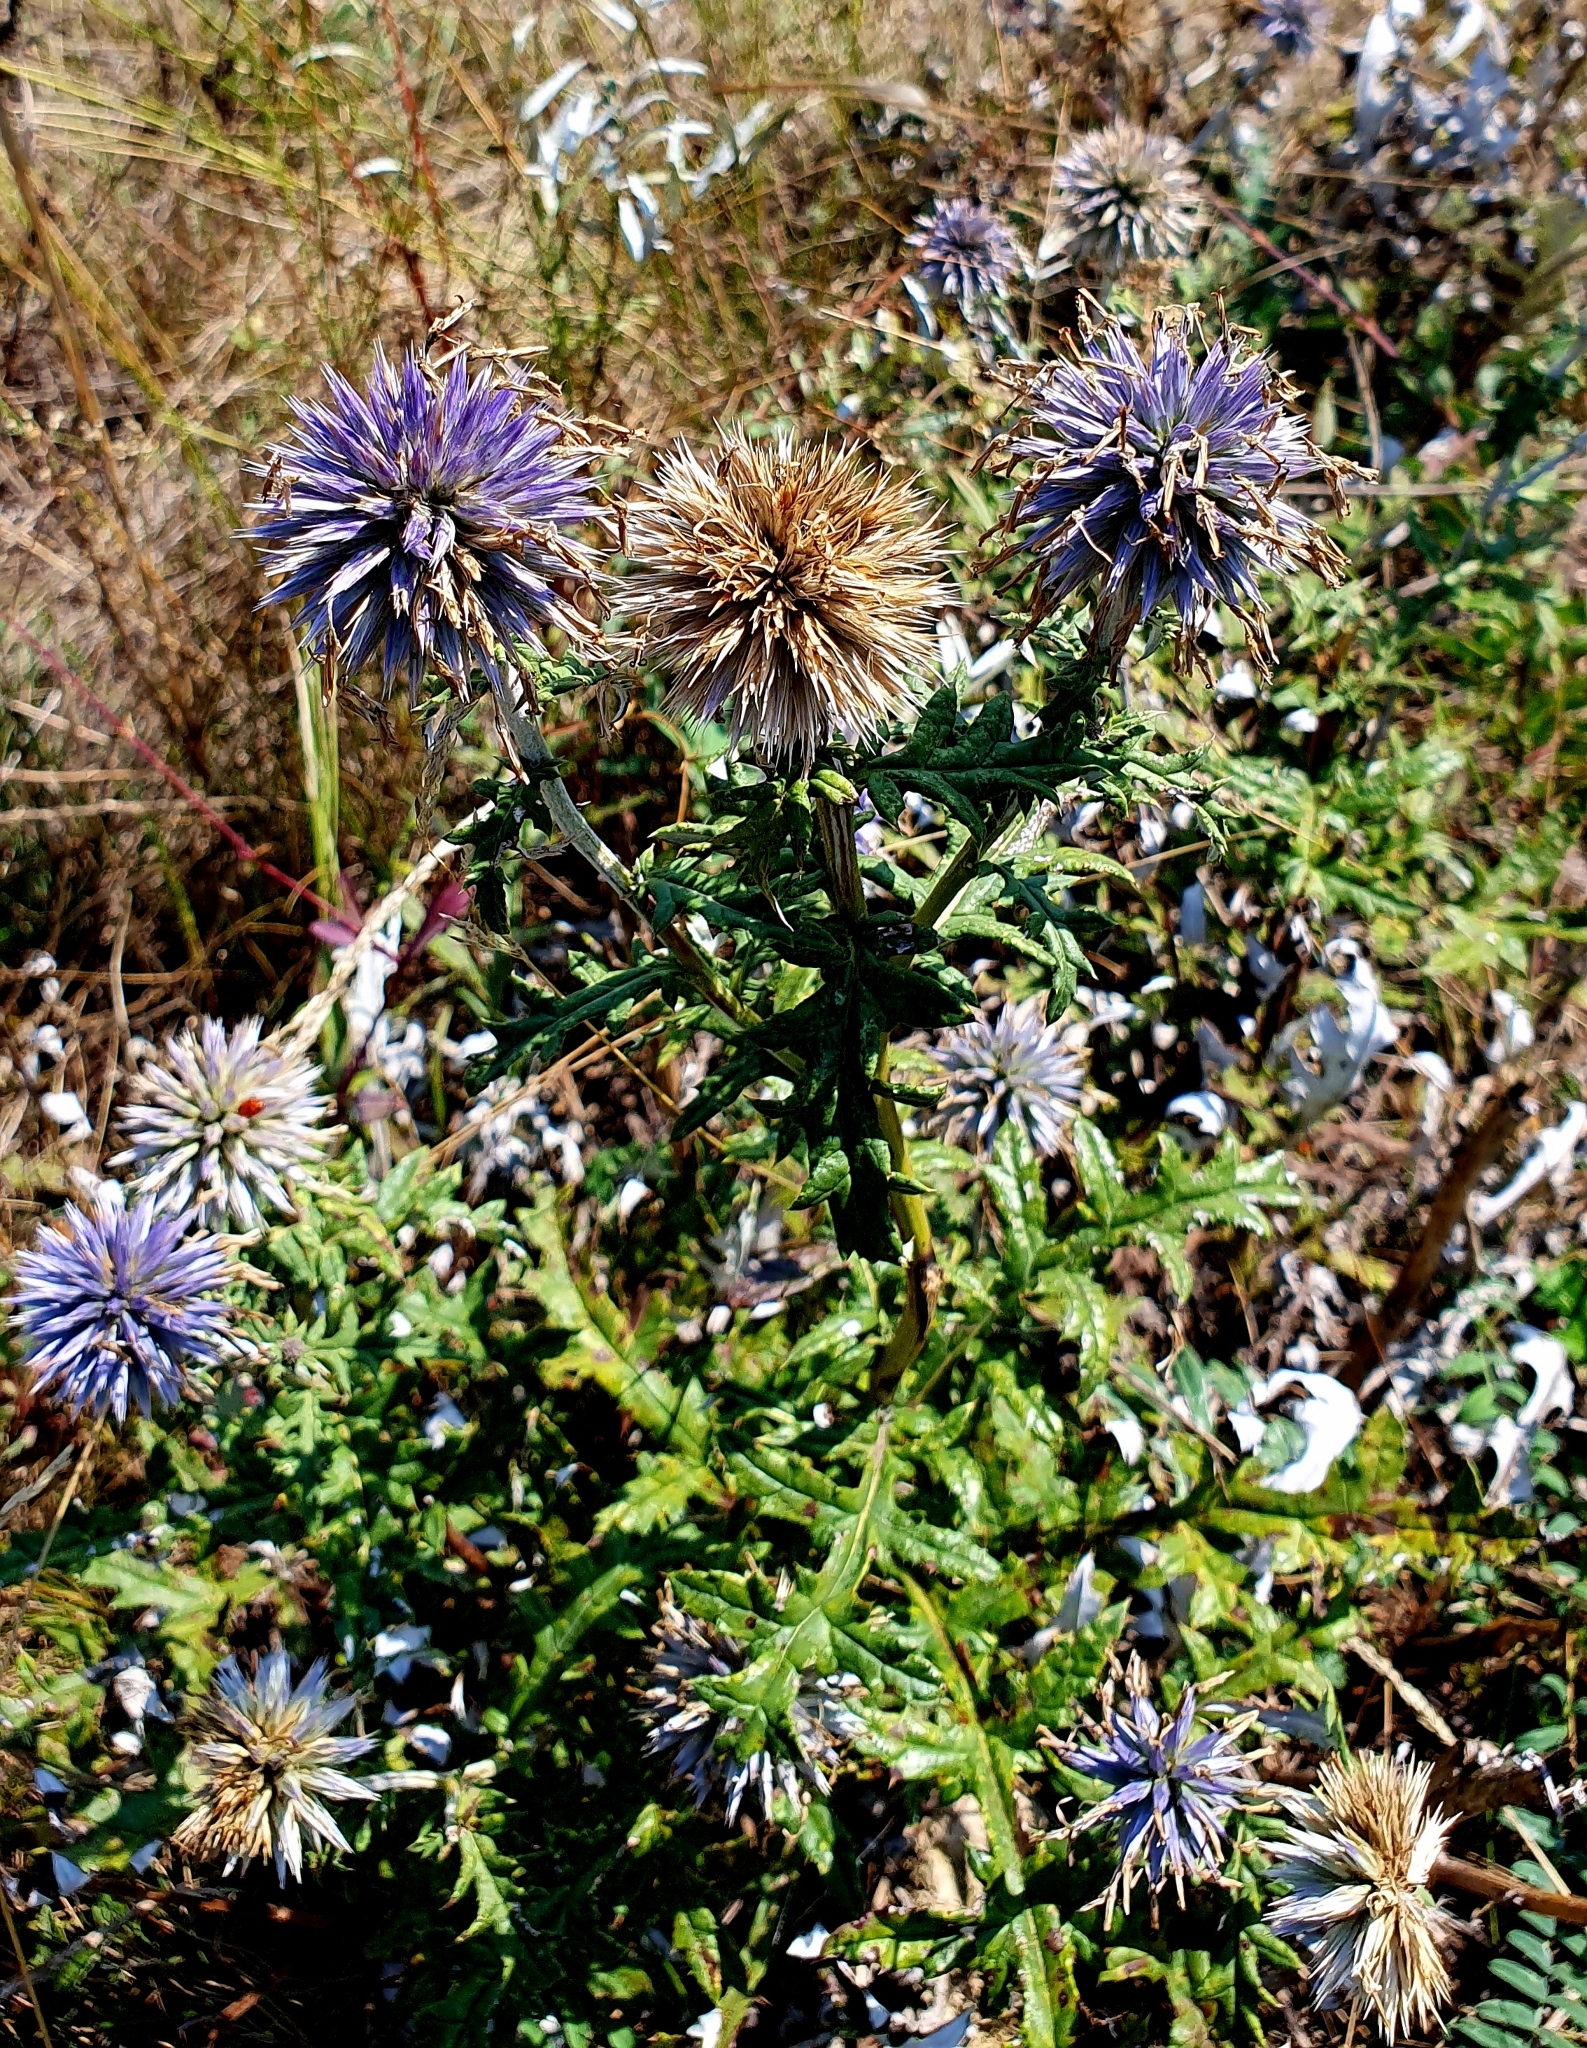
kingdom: Plantae
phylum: Tracheophyta
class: Magnoliopsida
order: Asterales
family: Asteraceae
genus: Echinops
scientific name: Echinops saksonovii
